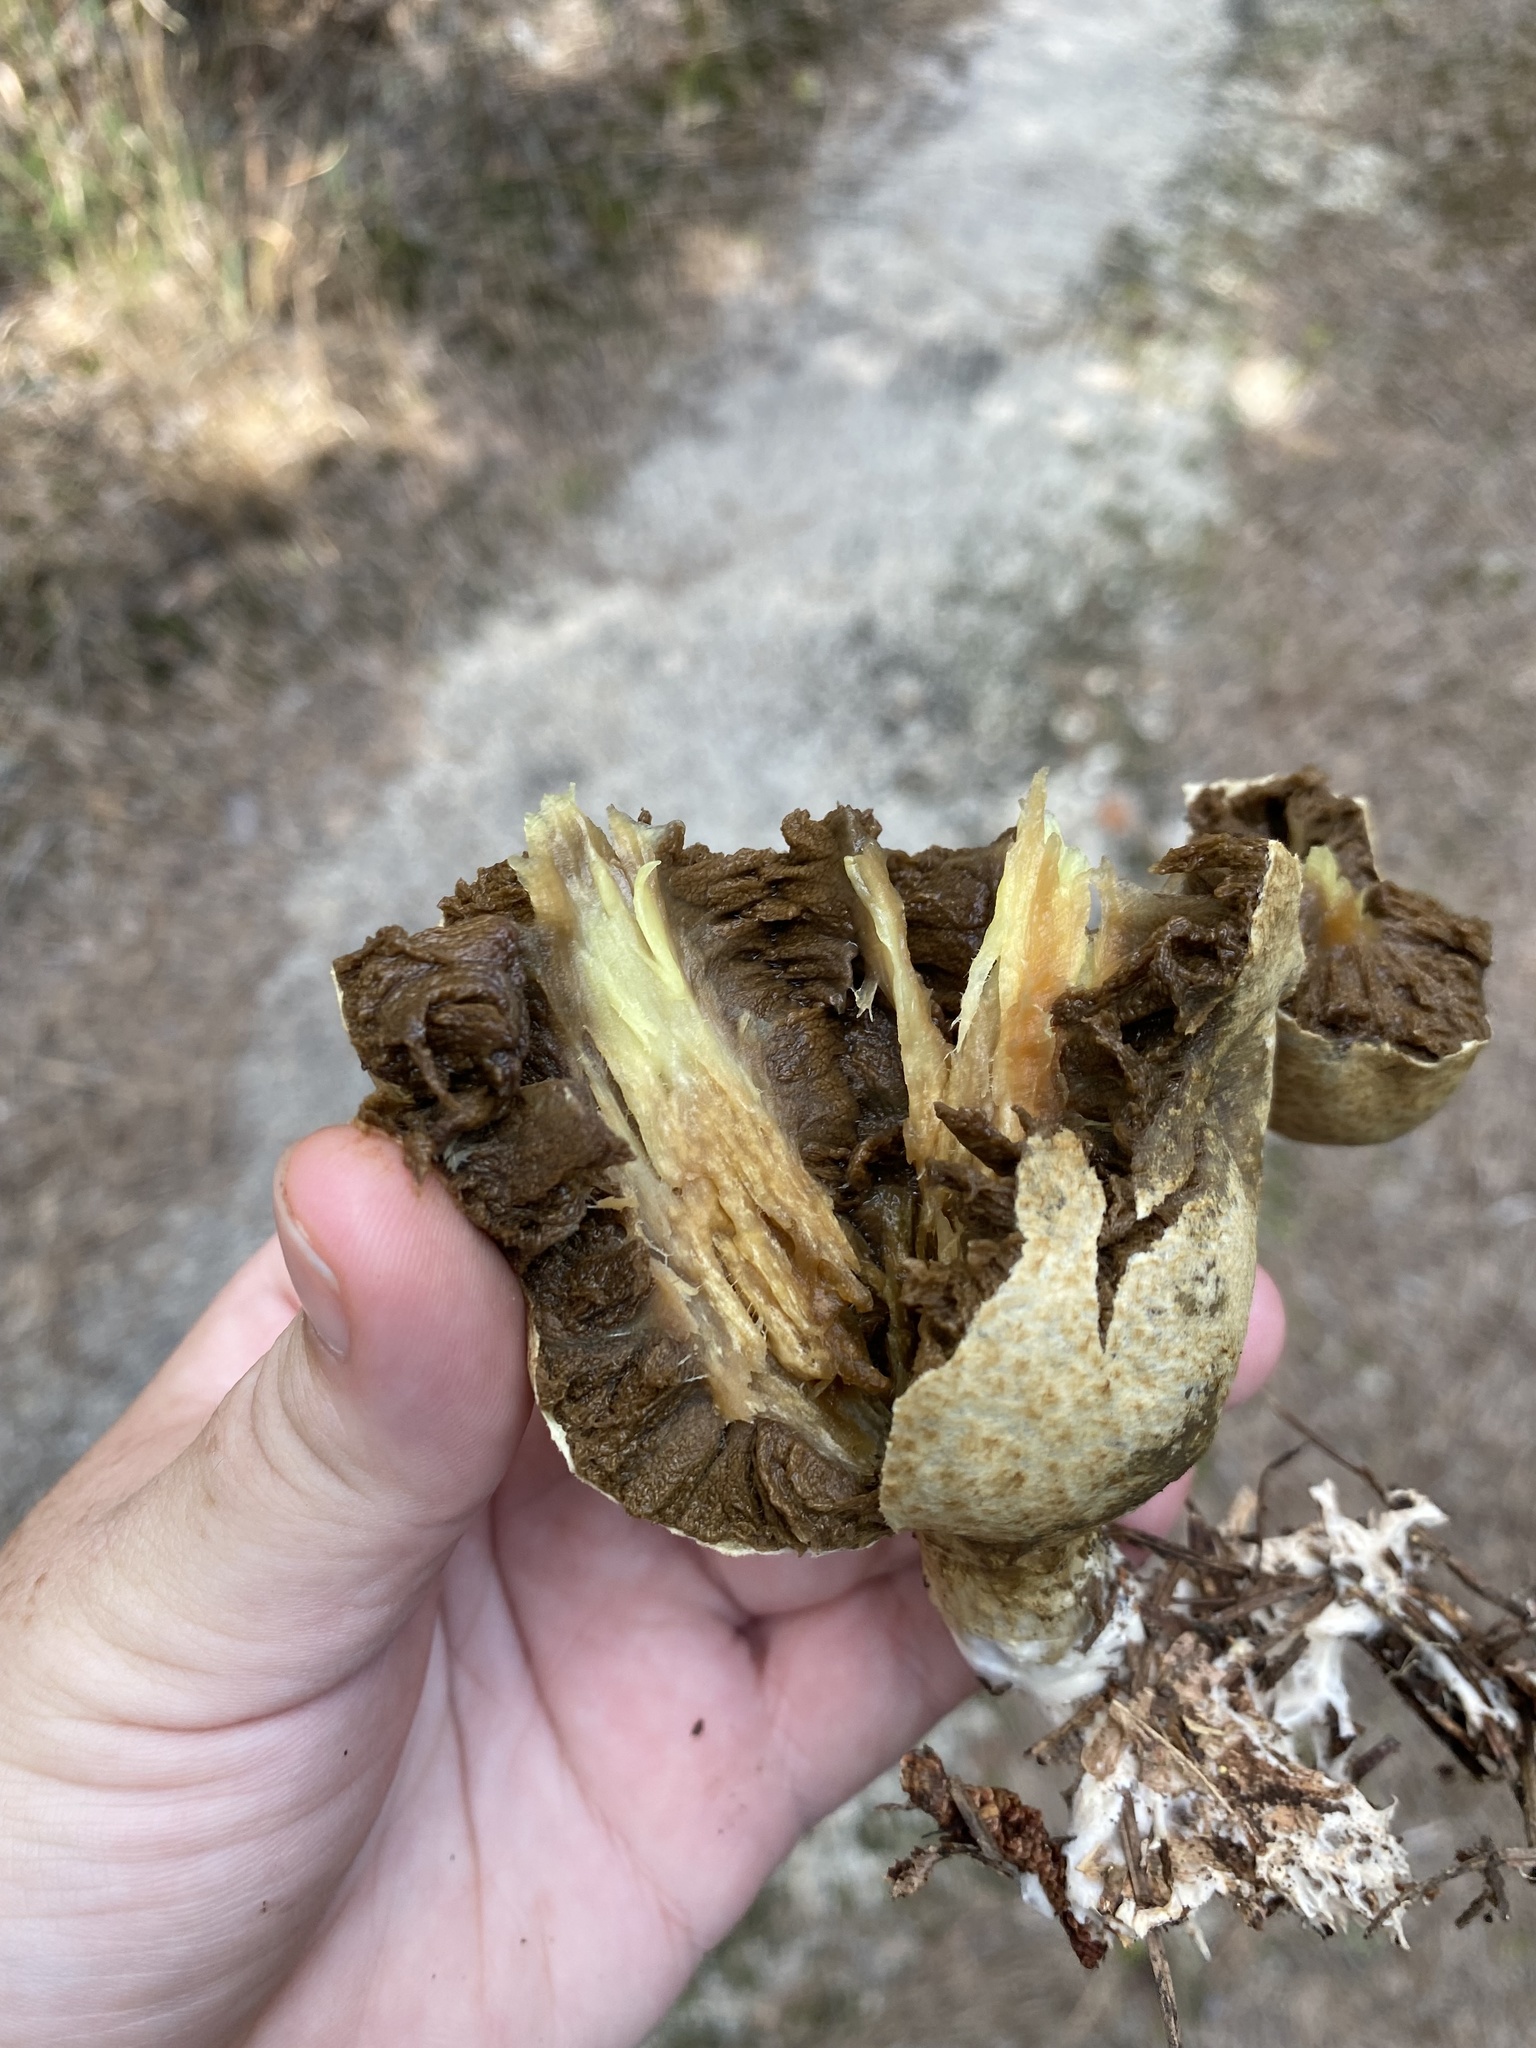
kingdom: Fungi
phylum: Basidiomycota
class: Agaricomycetes
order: Boletales
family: Rhizopogonaceae
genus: Rhopalogaster
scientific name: Rhopalogaster transversarius
